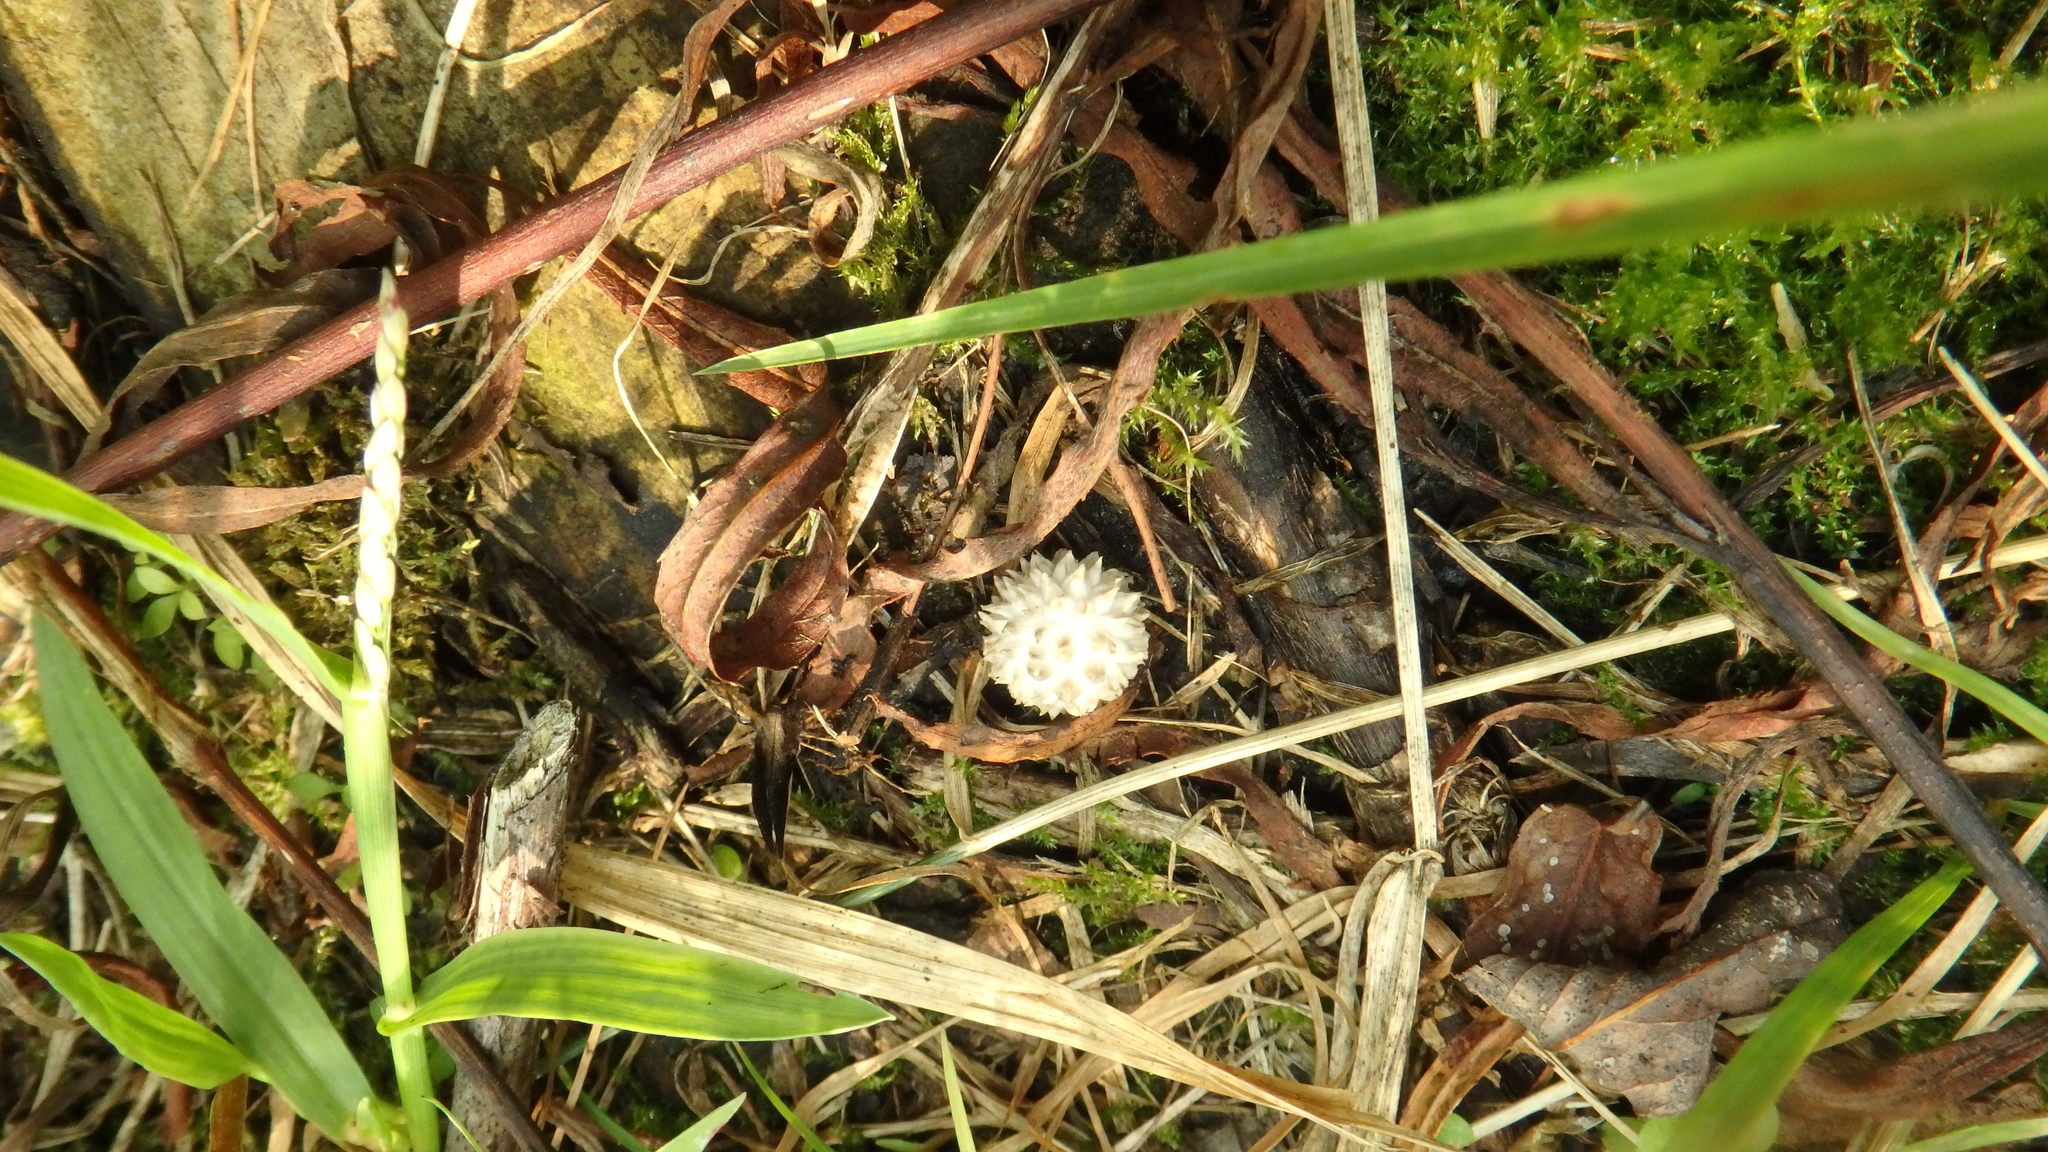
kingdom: Fungi
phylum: Basidiomycota
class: Agaricomycetes
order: Agaricales
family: Lycoperdaceae
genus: Lycoperdon
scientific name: Lycoperdon curtisii
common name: Curtis's puffball
